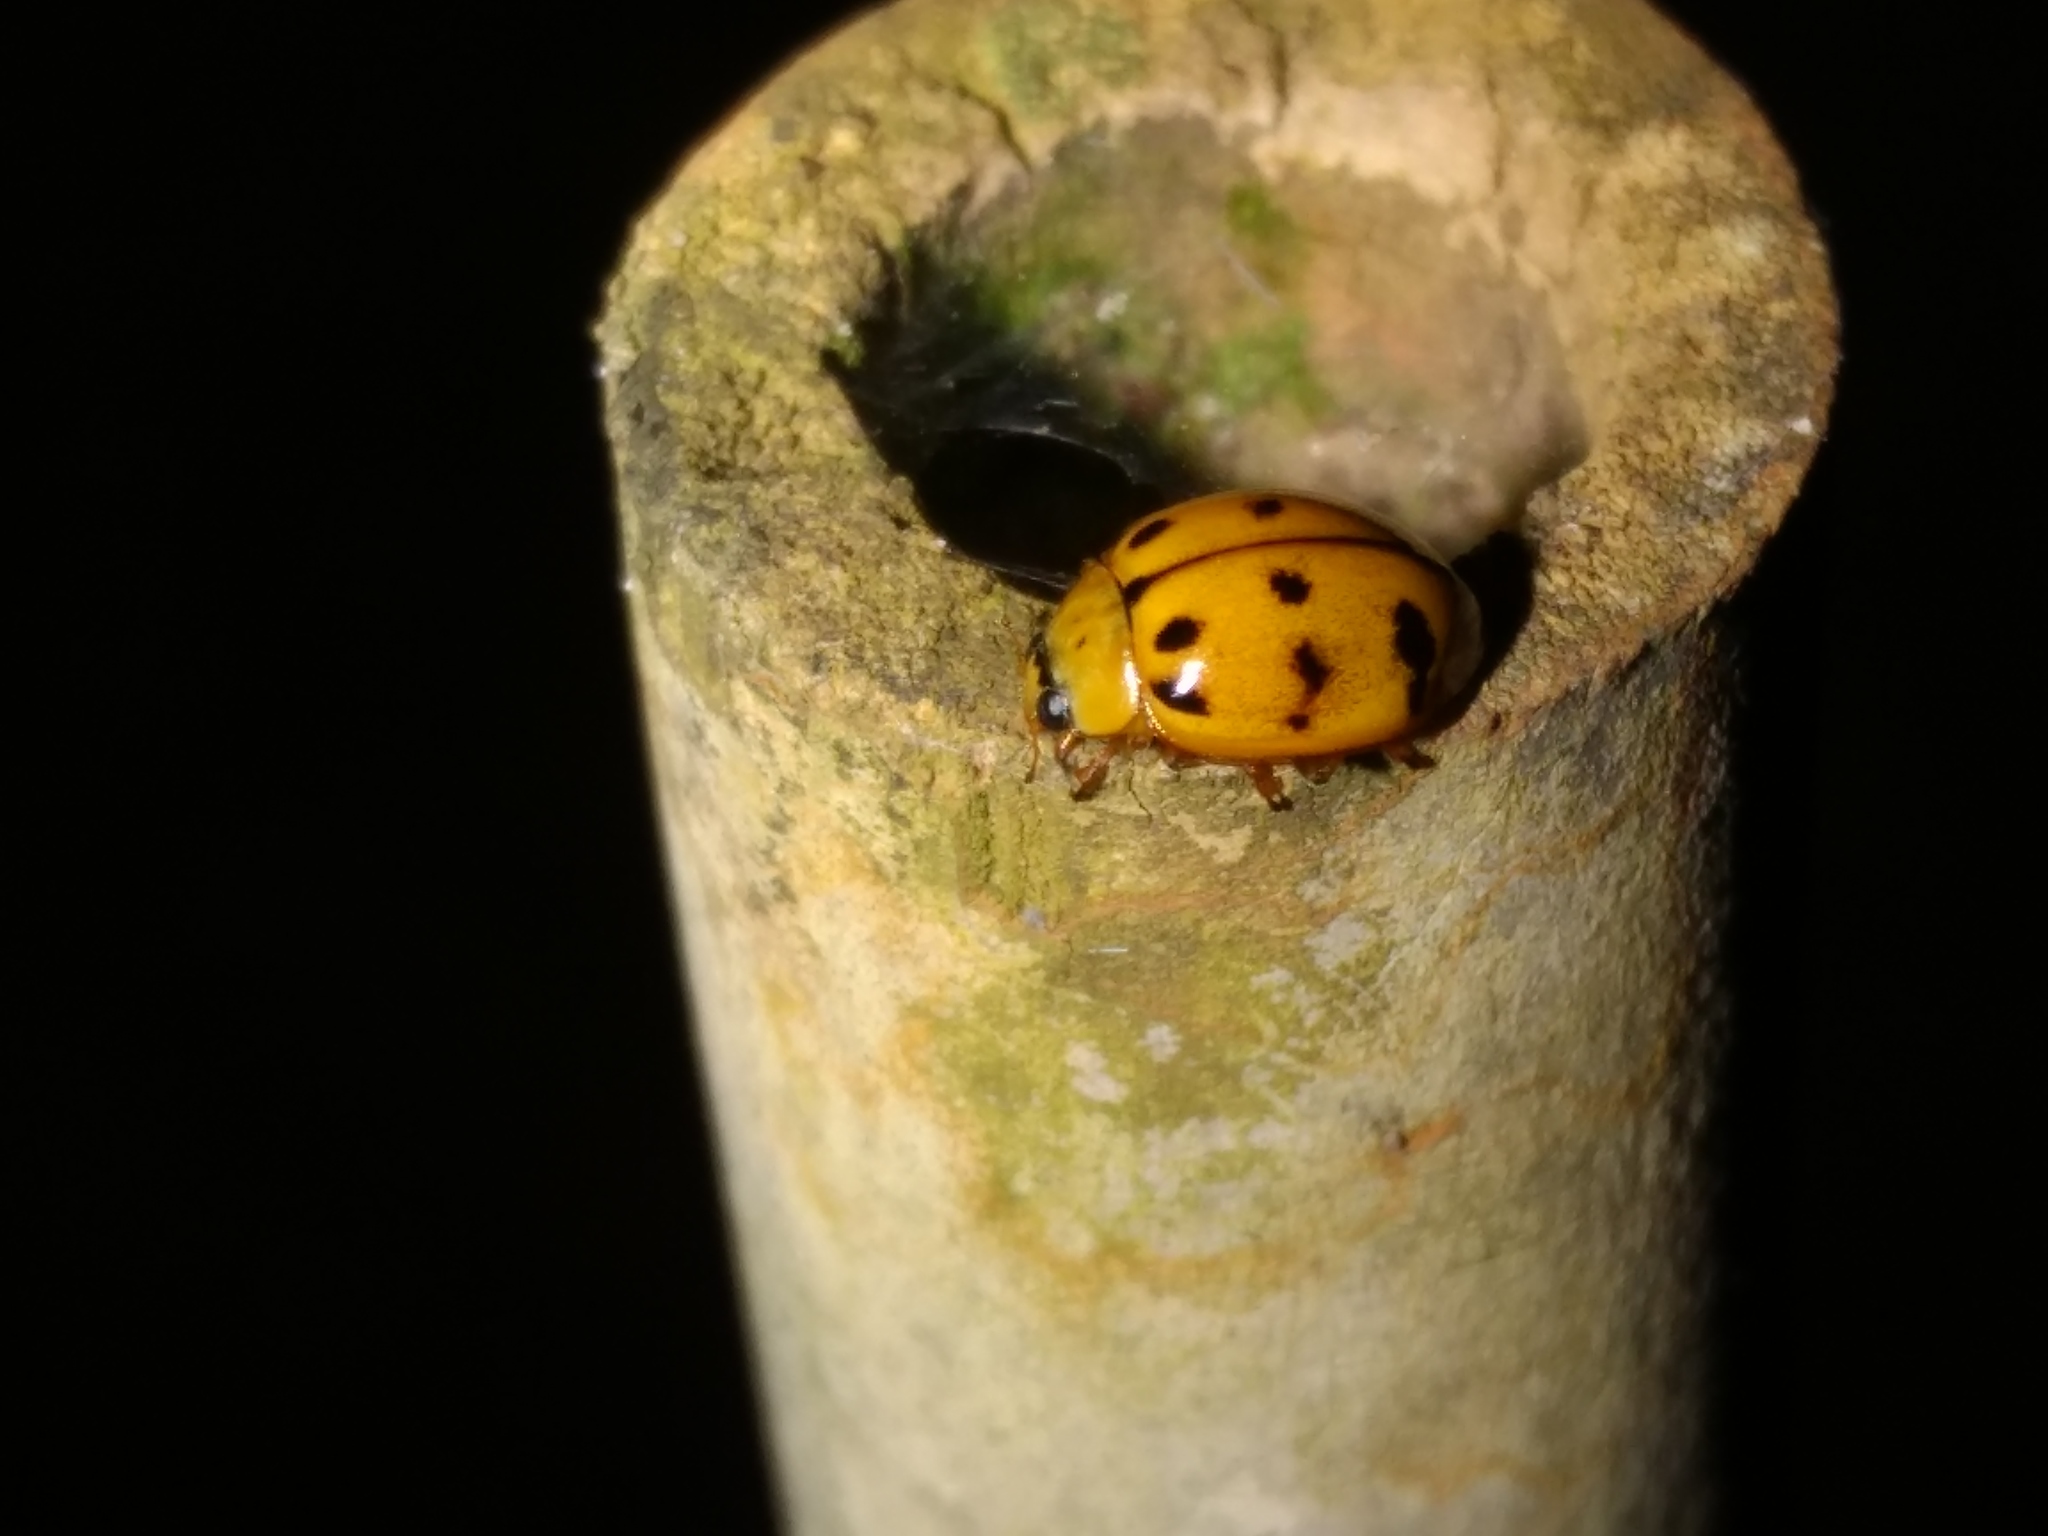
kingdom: Animalia
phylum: Arthropoda
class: Insecta
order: Coleoptera
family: Coccinellidae
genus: Harmonia
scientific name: Harmonia octomaculata
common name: Lady beetle
